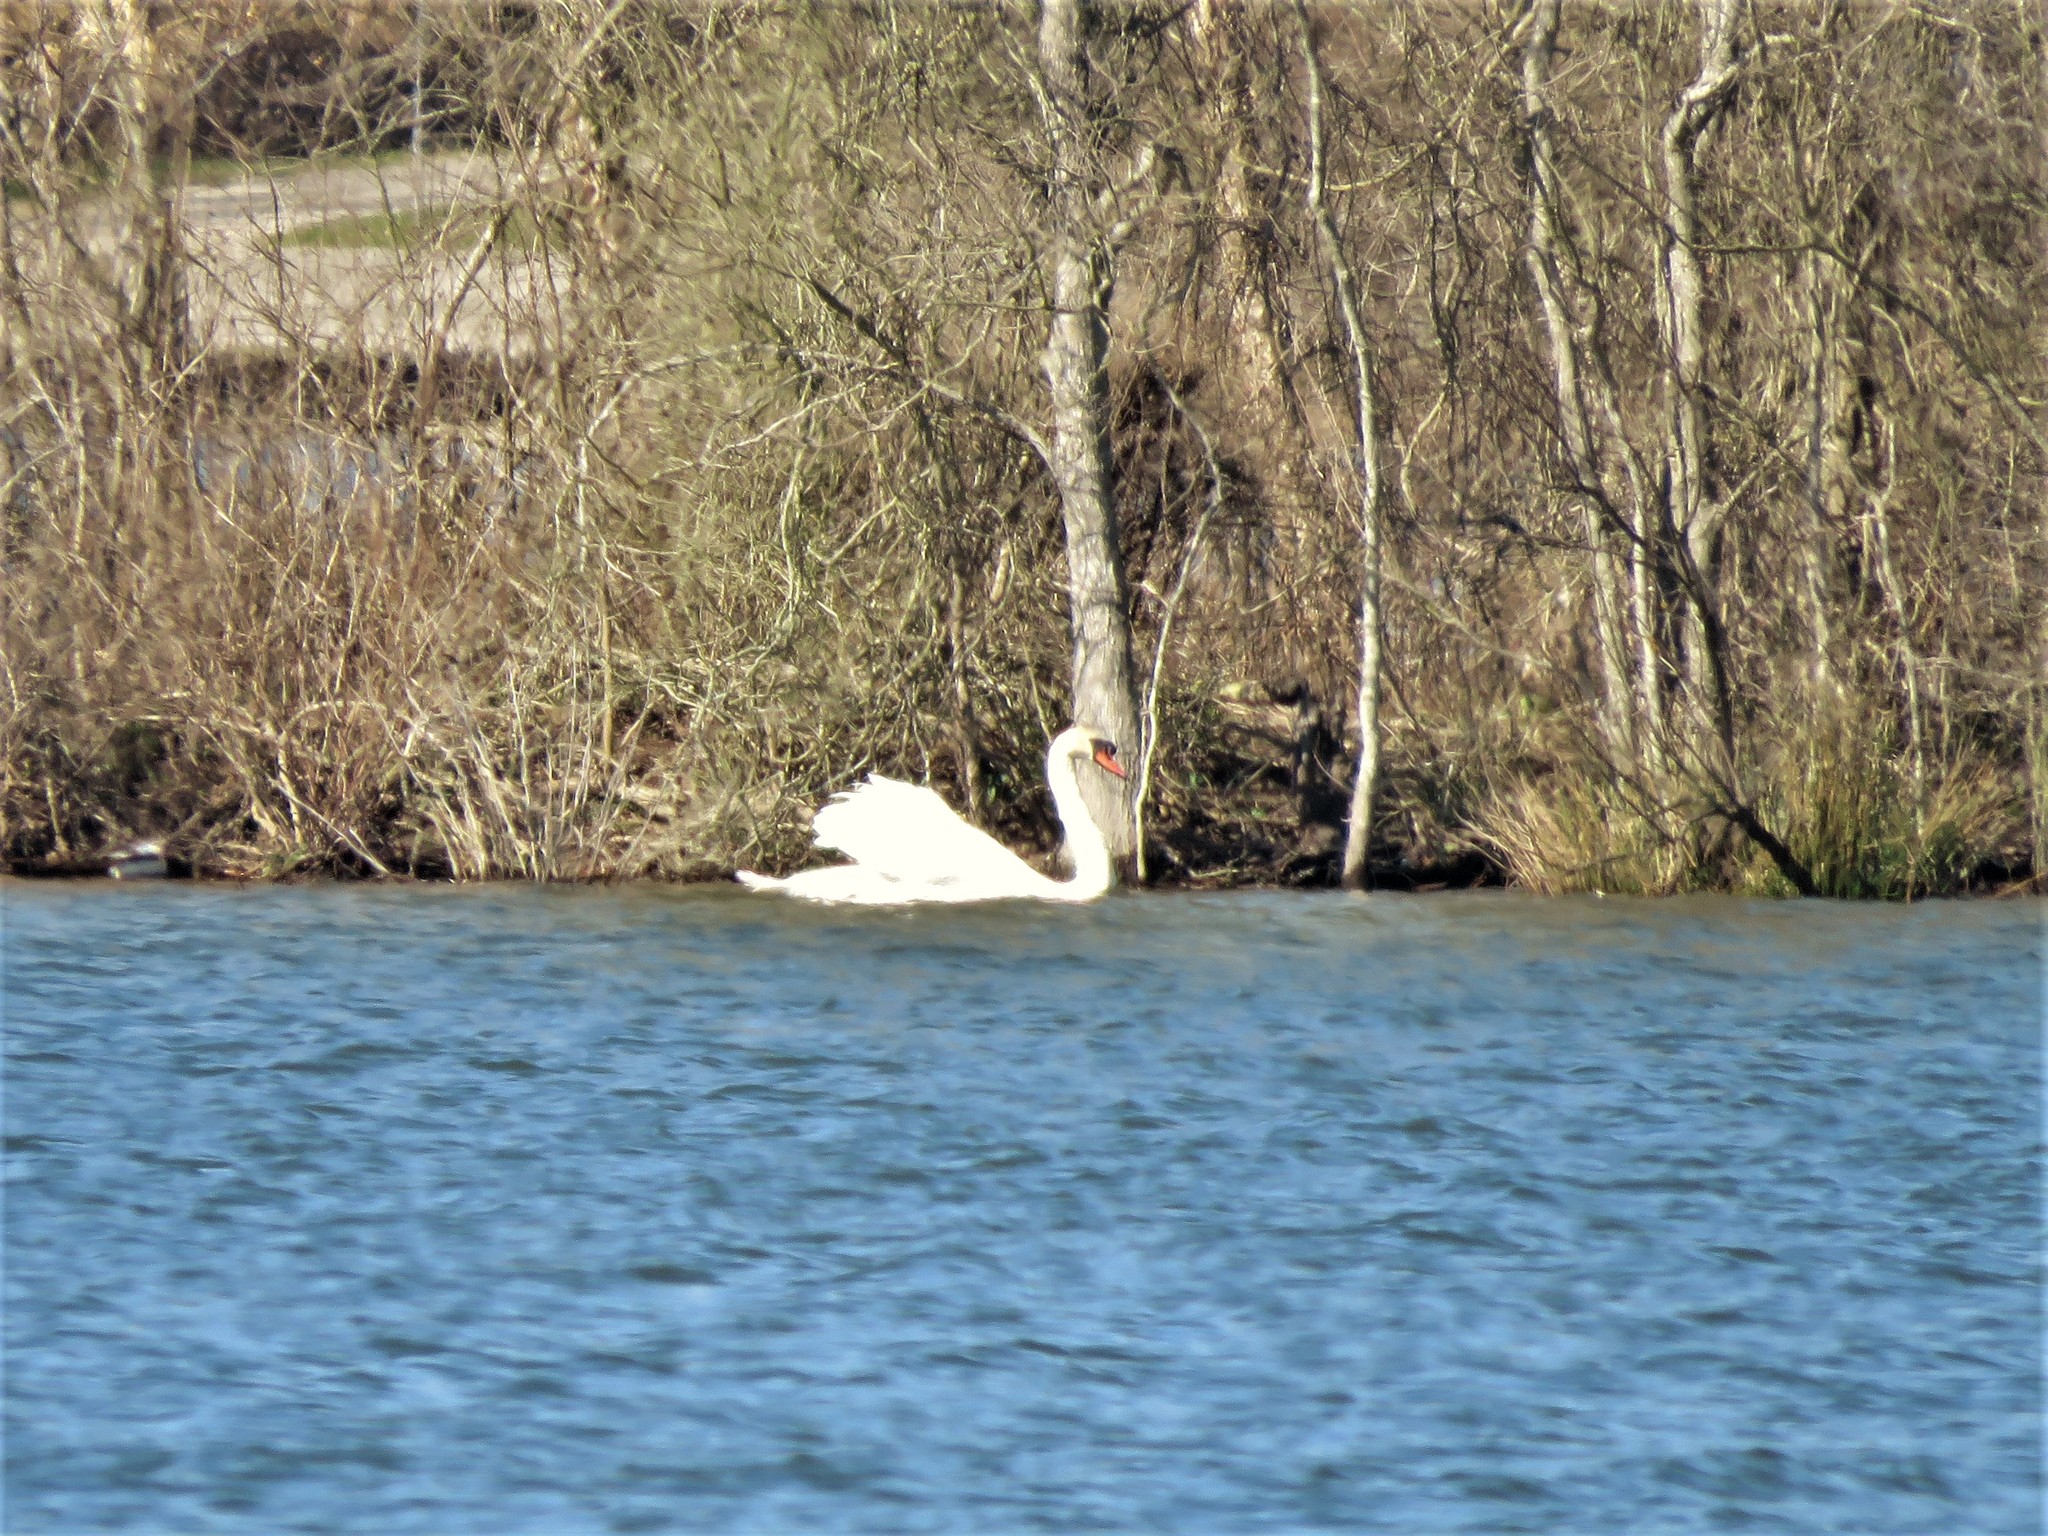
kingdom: Animalia
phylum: Chordata
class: Aves
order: Anseriformes
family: Anatidae
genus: Cygnus
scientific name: Cygnus olor
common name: Mute swan
